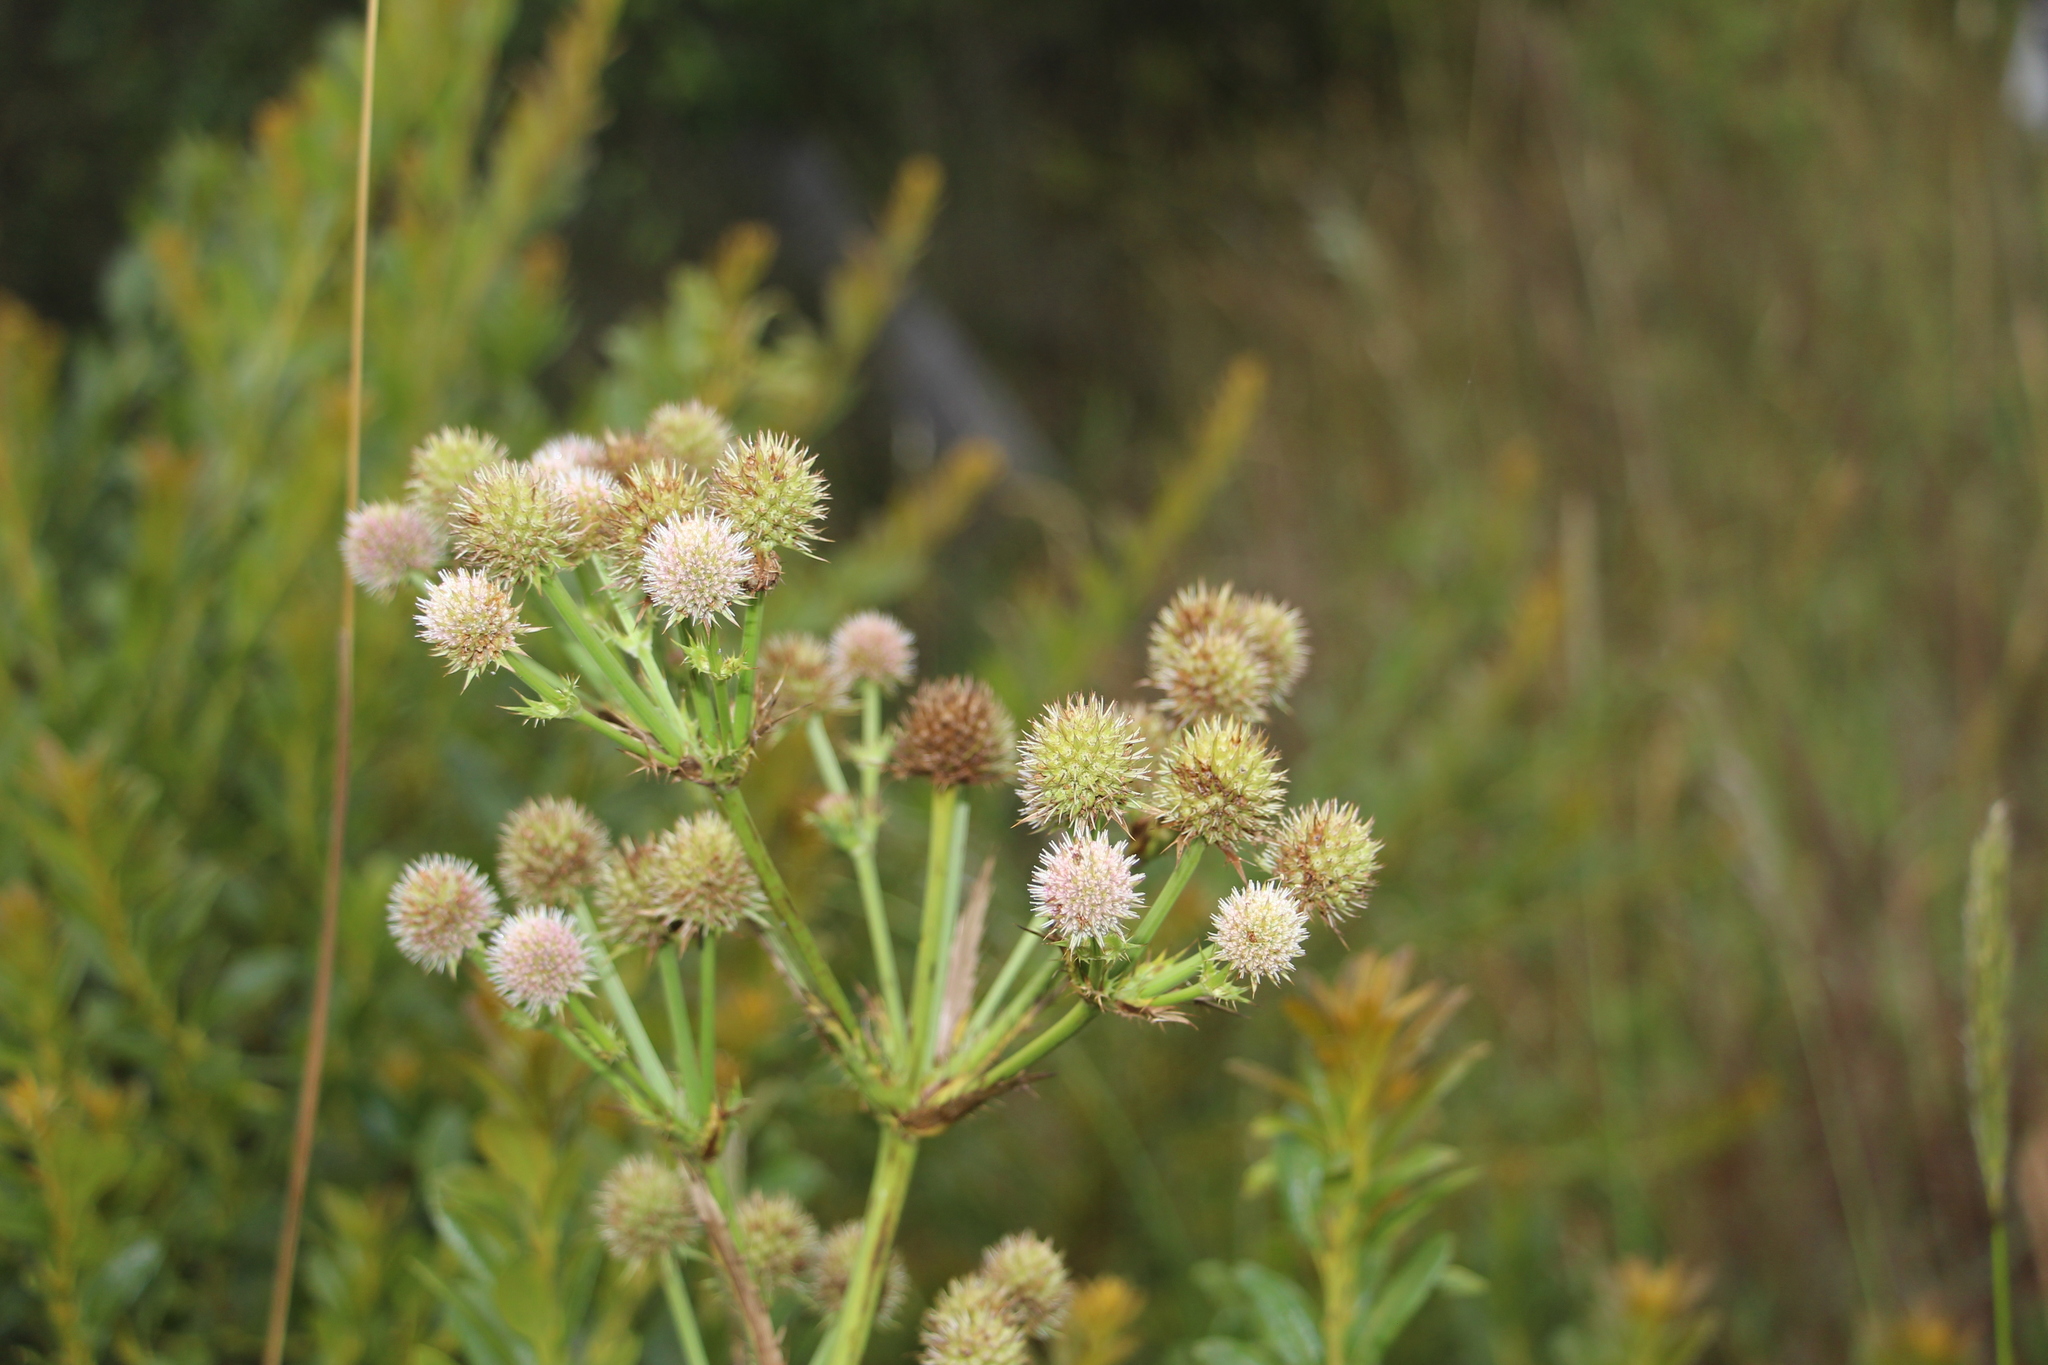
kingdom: Plantae
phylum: Tracheophyta
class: Magnoliopsida
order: Apiales
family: Apiaceae
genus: Eryngium
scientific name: Eryngium humboldtii
